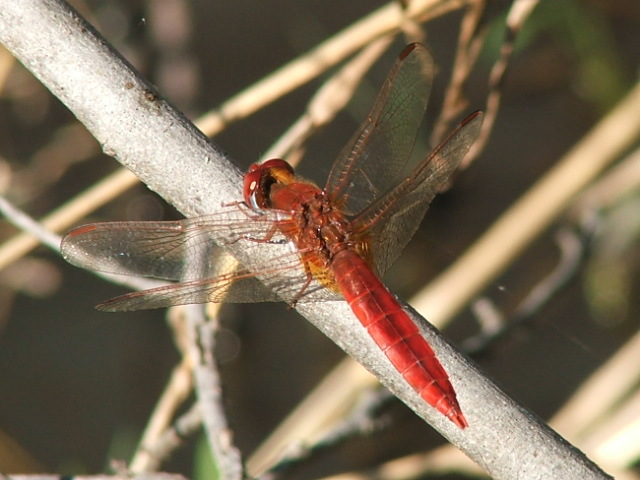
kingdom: Animalia
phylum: Arthropoda
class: Insecta
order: Odonata
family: Libellulidae
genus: Crocothemis
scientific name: Crocothemis erythraea
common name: Scarlet dragonfly
